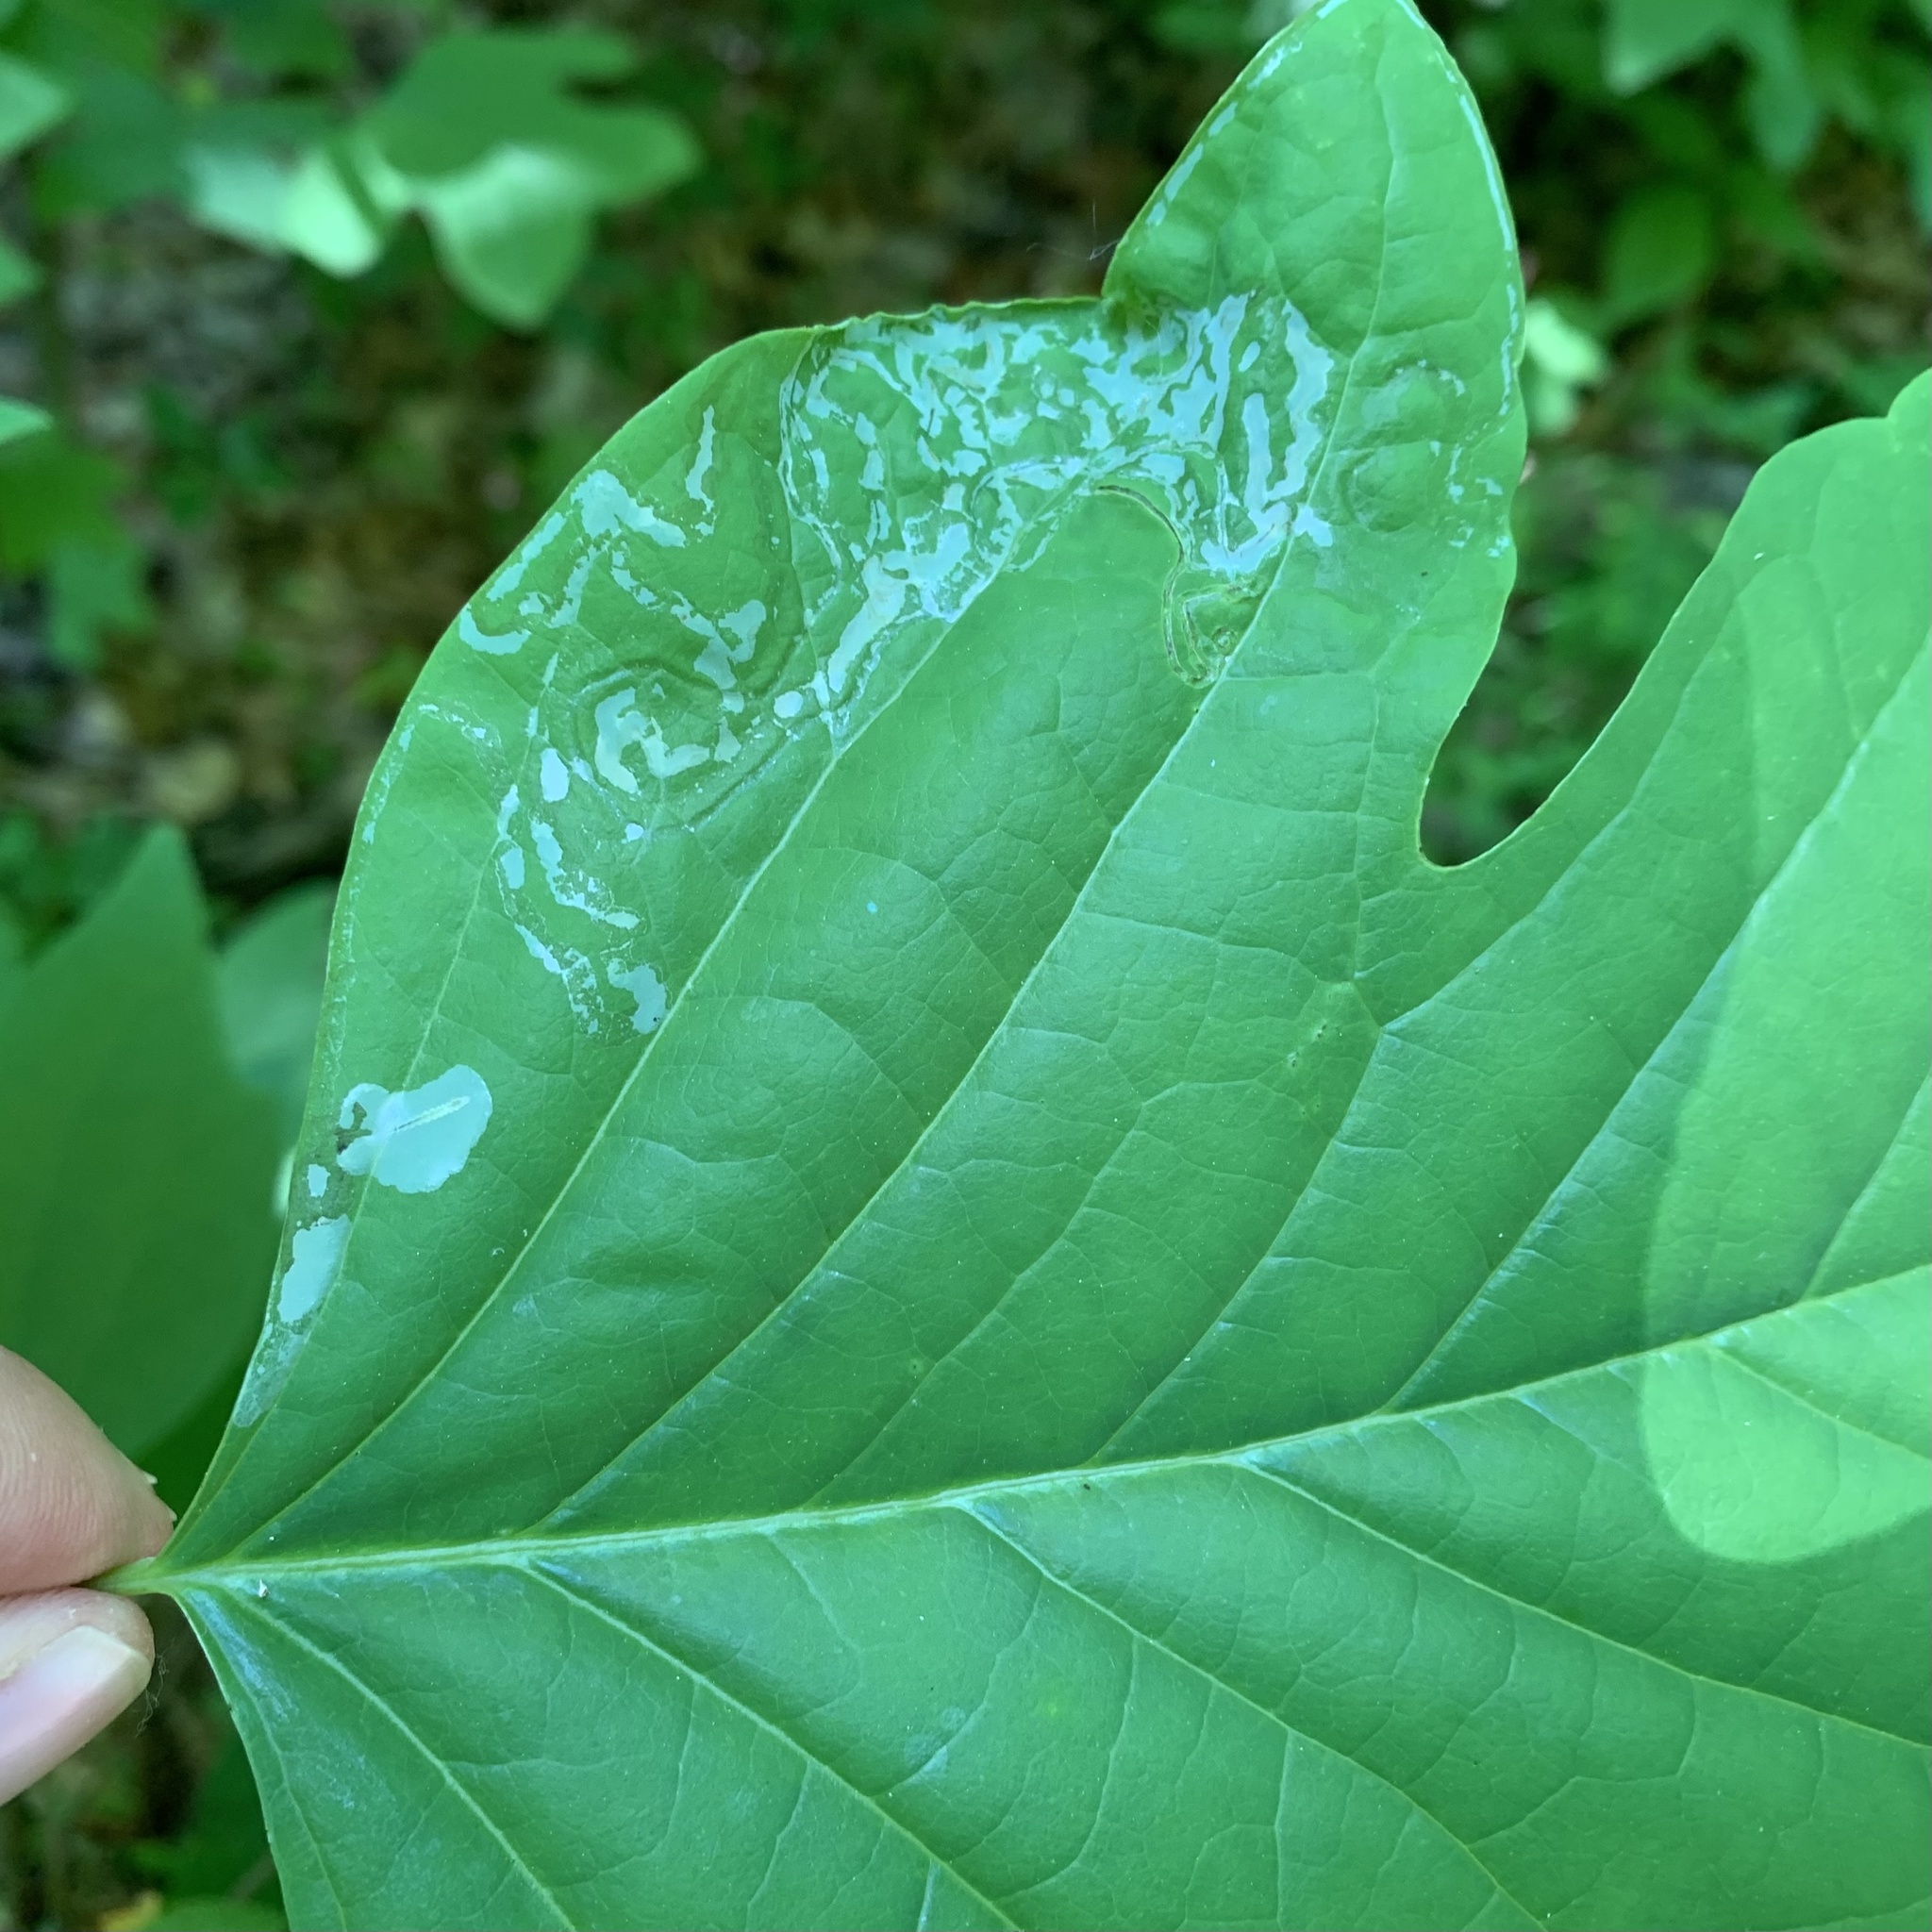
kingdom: Animalia
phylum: Arthropoda
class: Insecta
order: Lepidoptera
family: Gracillariidae
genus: Phyllocnistis
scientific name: Phyllocnistis liriodendronella
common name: Tulip tree leaf miner
